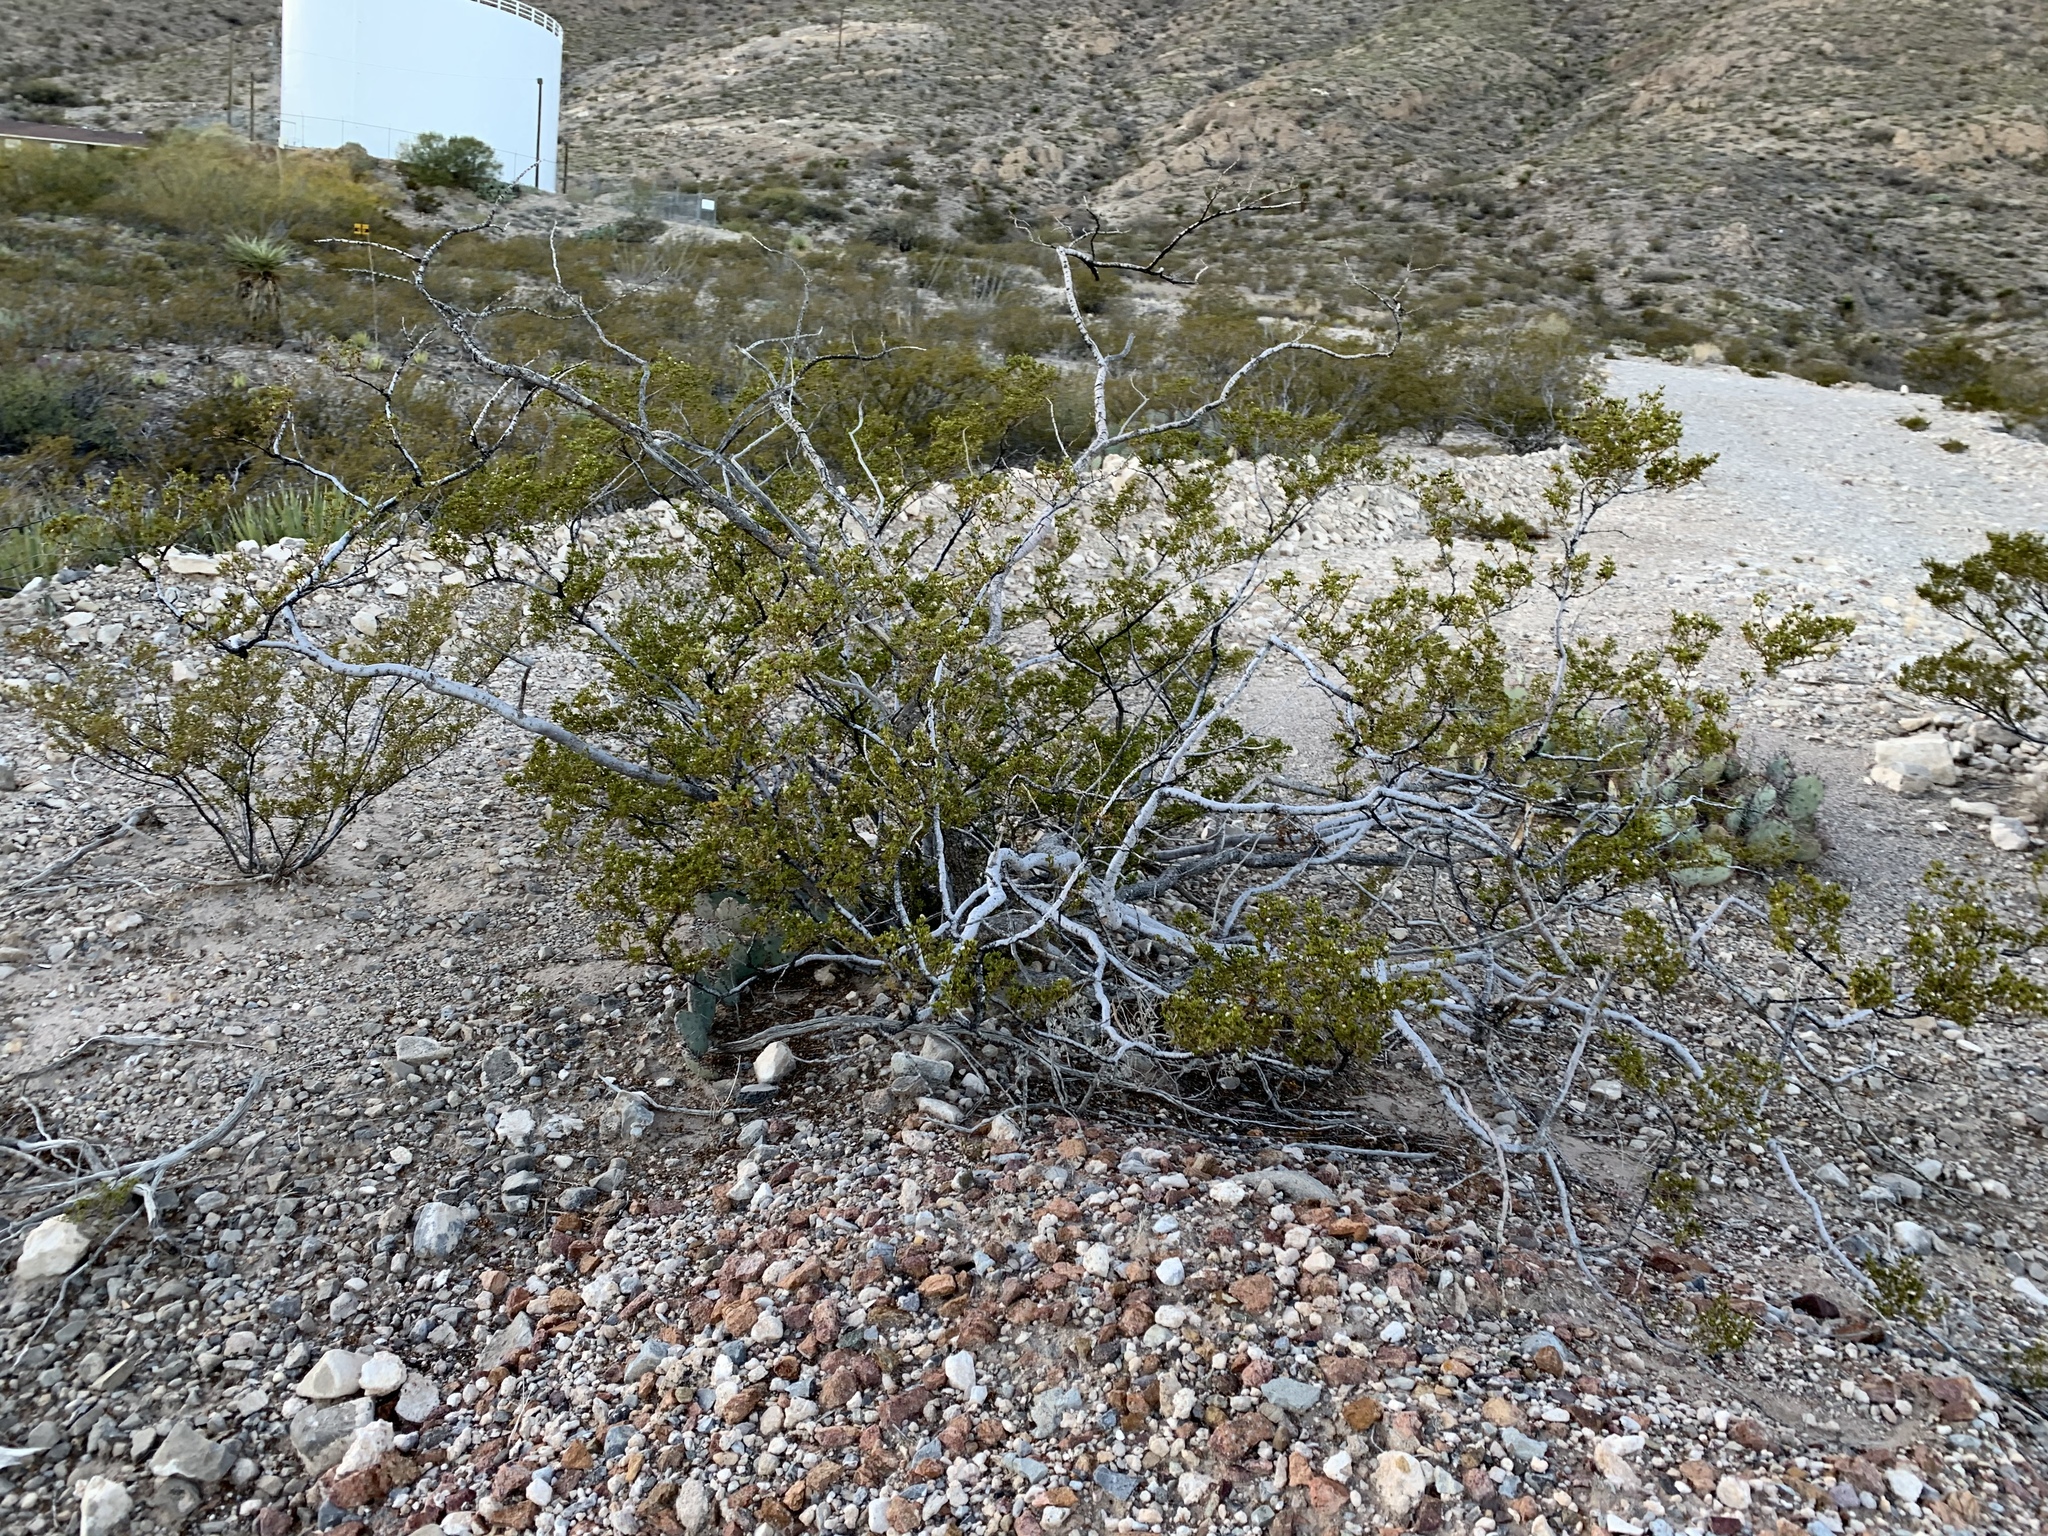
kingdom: Plantae
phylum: Tracheophyta
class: Magnoliopsida
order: Zygophyllales
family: Zygophyllaceae
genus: Larrea
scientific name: Larrea tridentata
